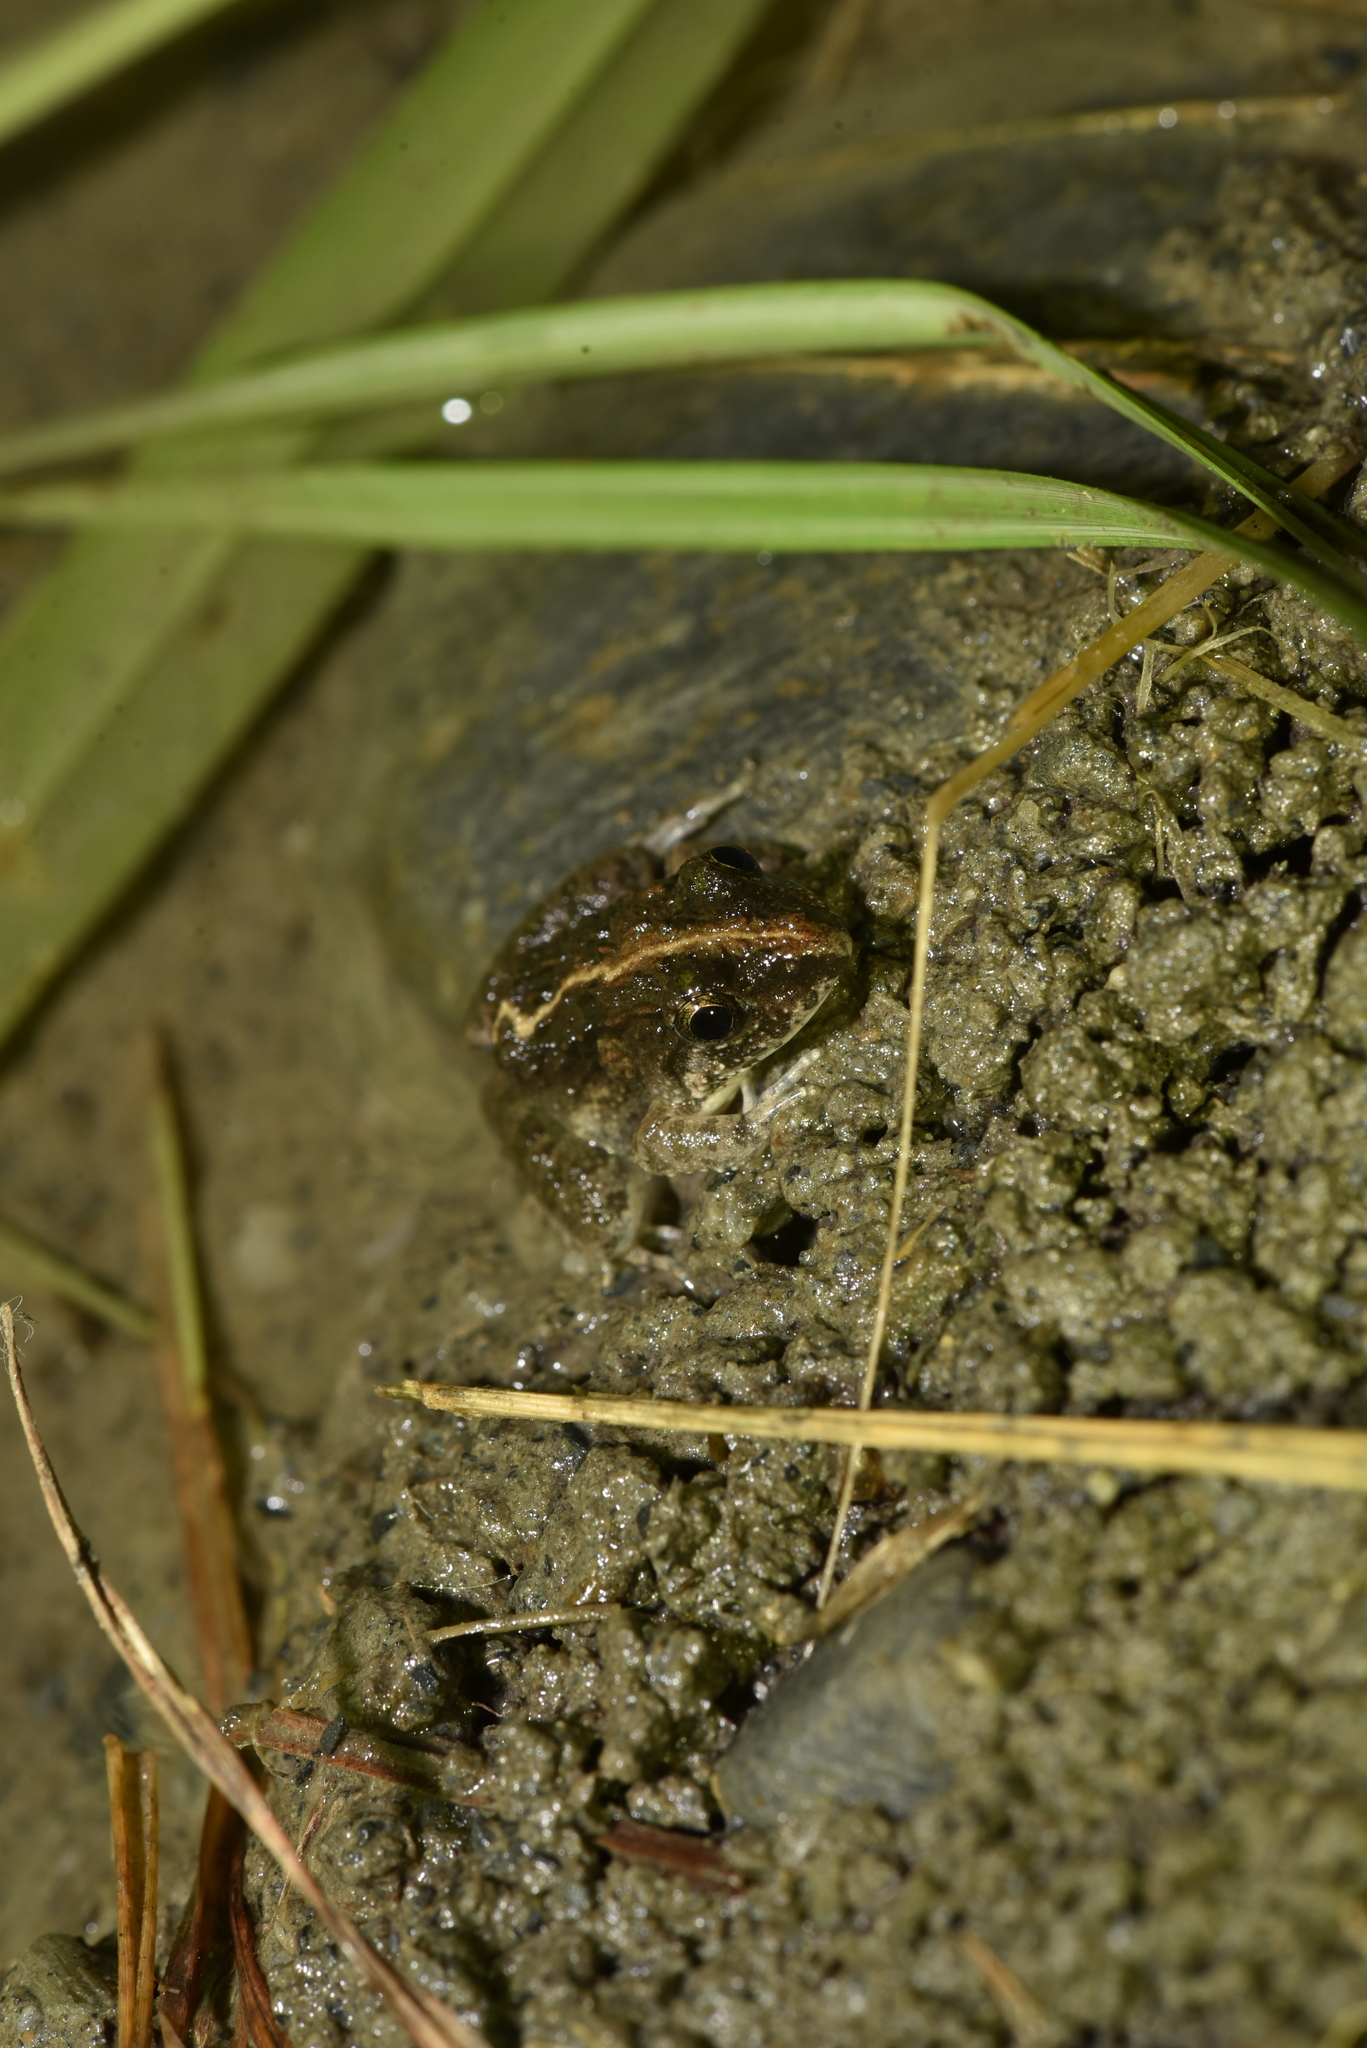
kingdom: Animalia
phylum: Chordata
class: Amphibia
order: Anura
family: Dicroglossidae
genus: Fejervarya
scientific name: Fejervarya limnocharis
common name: Asian grass frog/common pond frog/field frog/grass frog/indian rice frog
